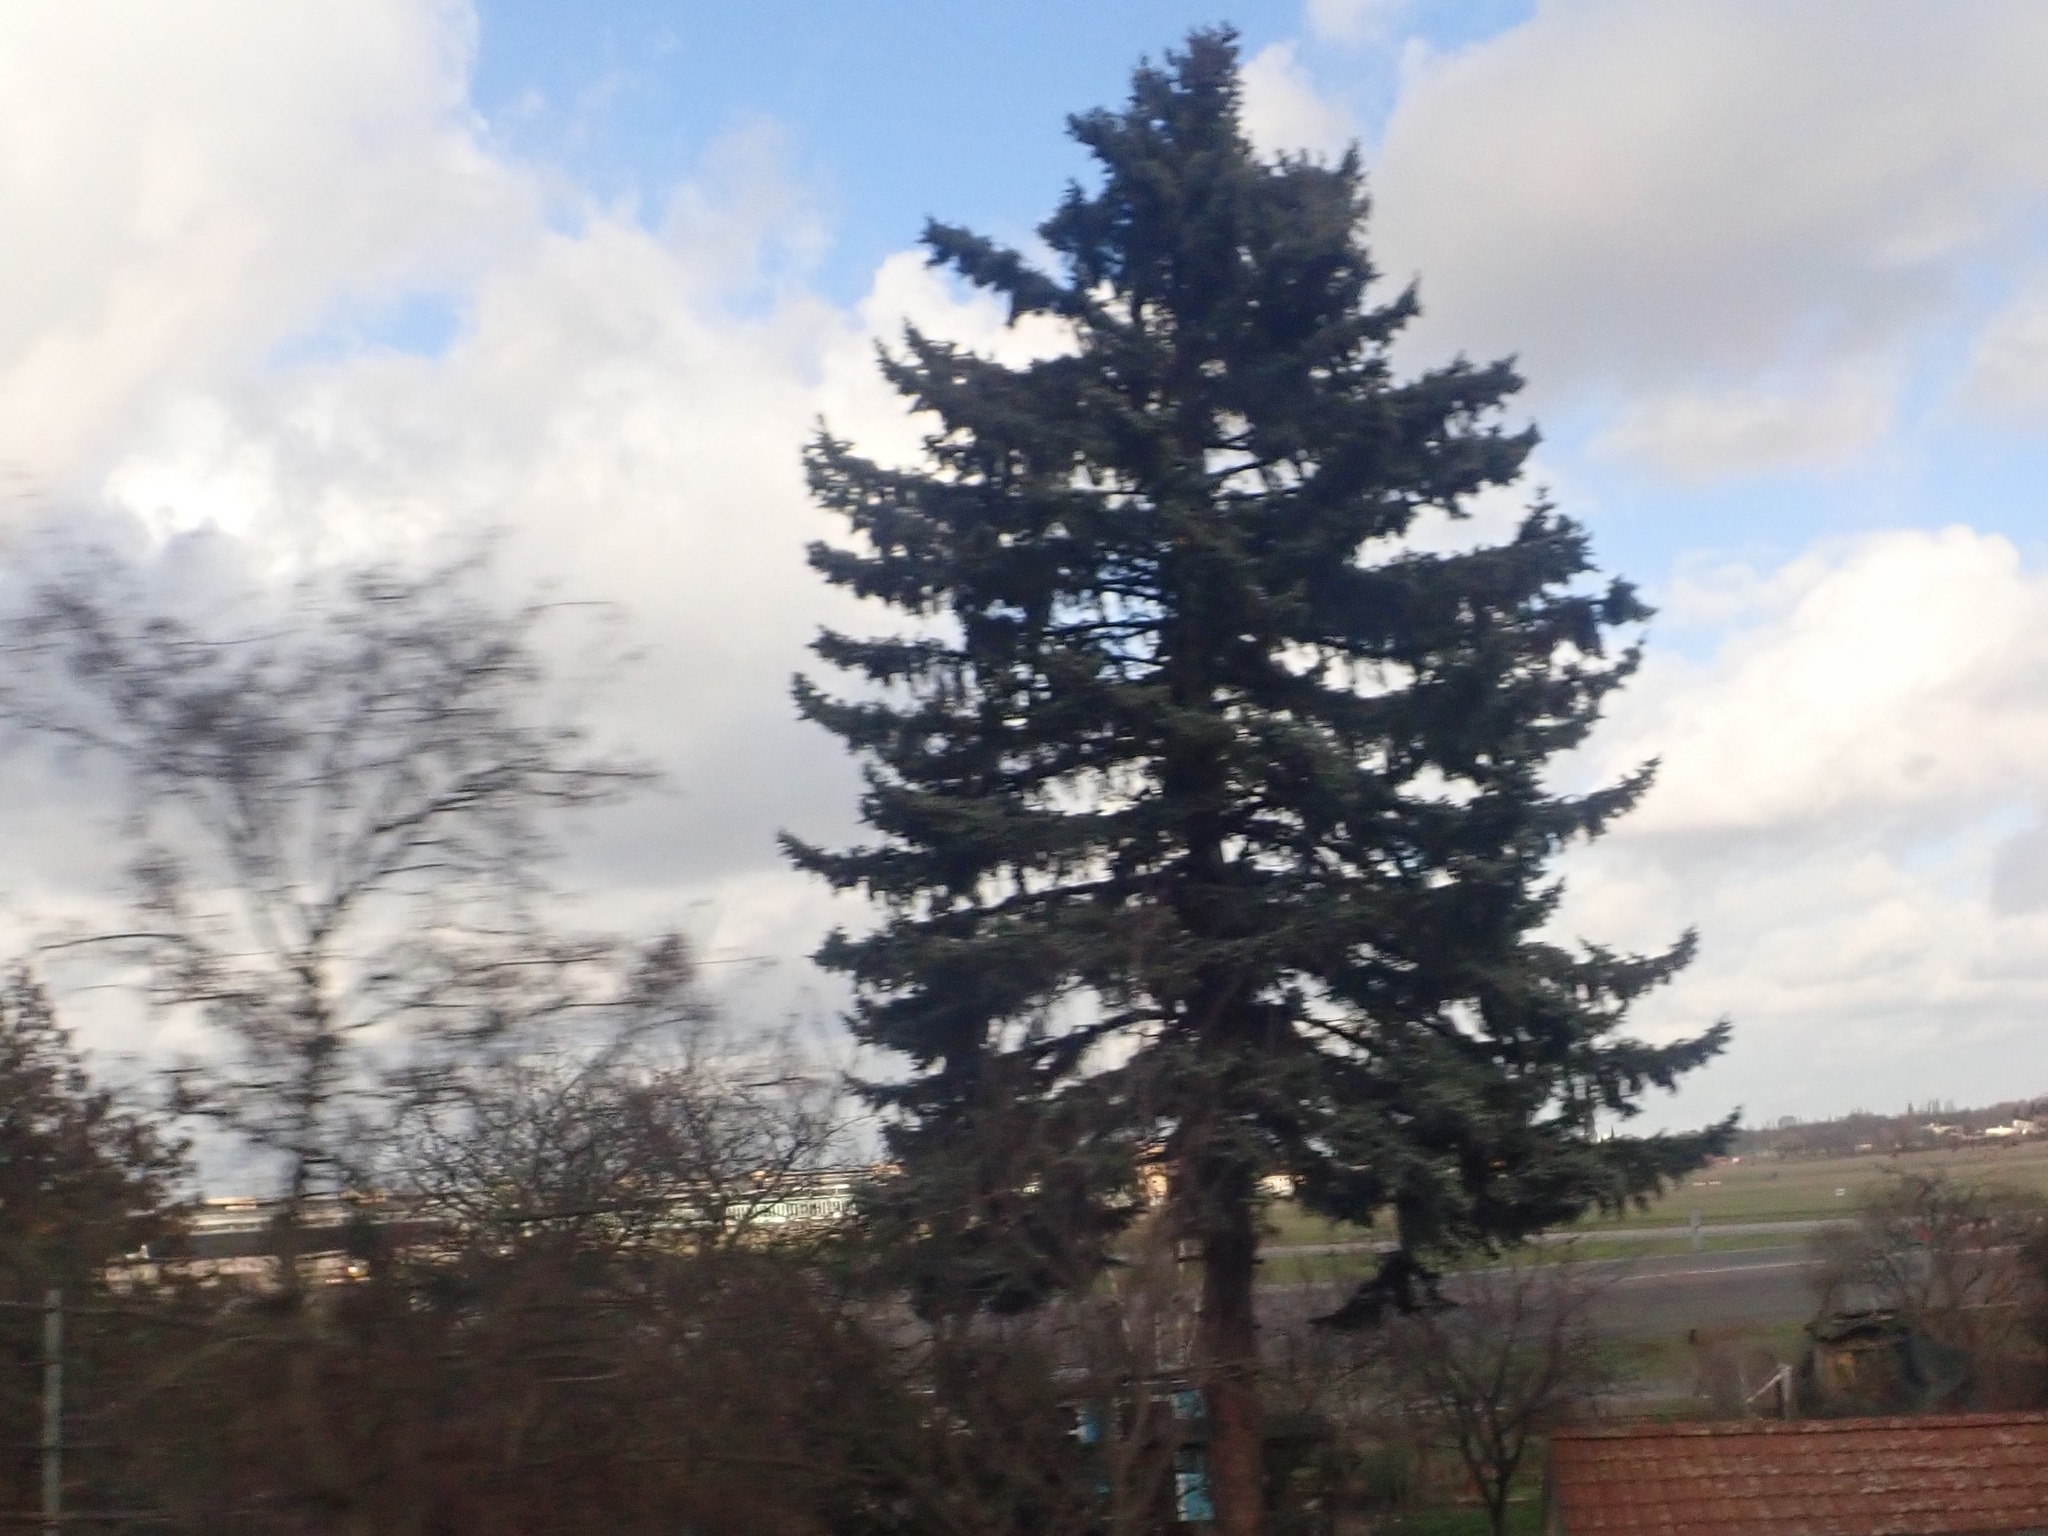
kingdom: Plantae
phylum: Tracheophyta
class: Pinopsida
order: Pinales
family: Pinaceae
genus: Picea
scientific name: Picea abies
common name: Norway spruce
